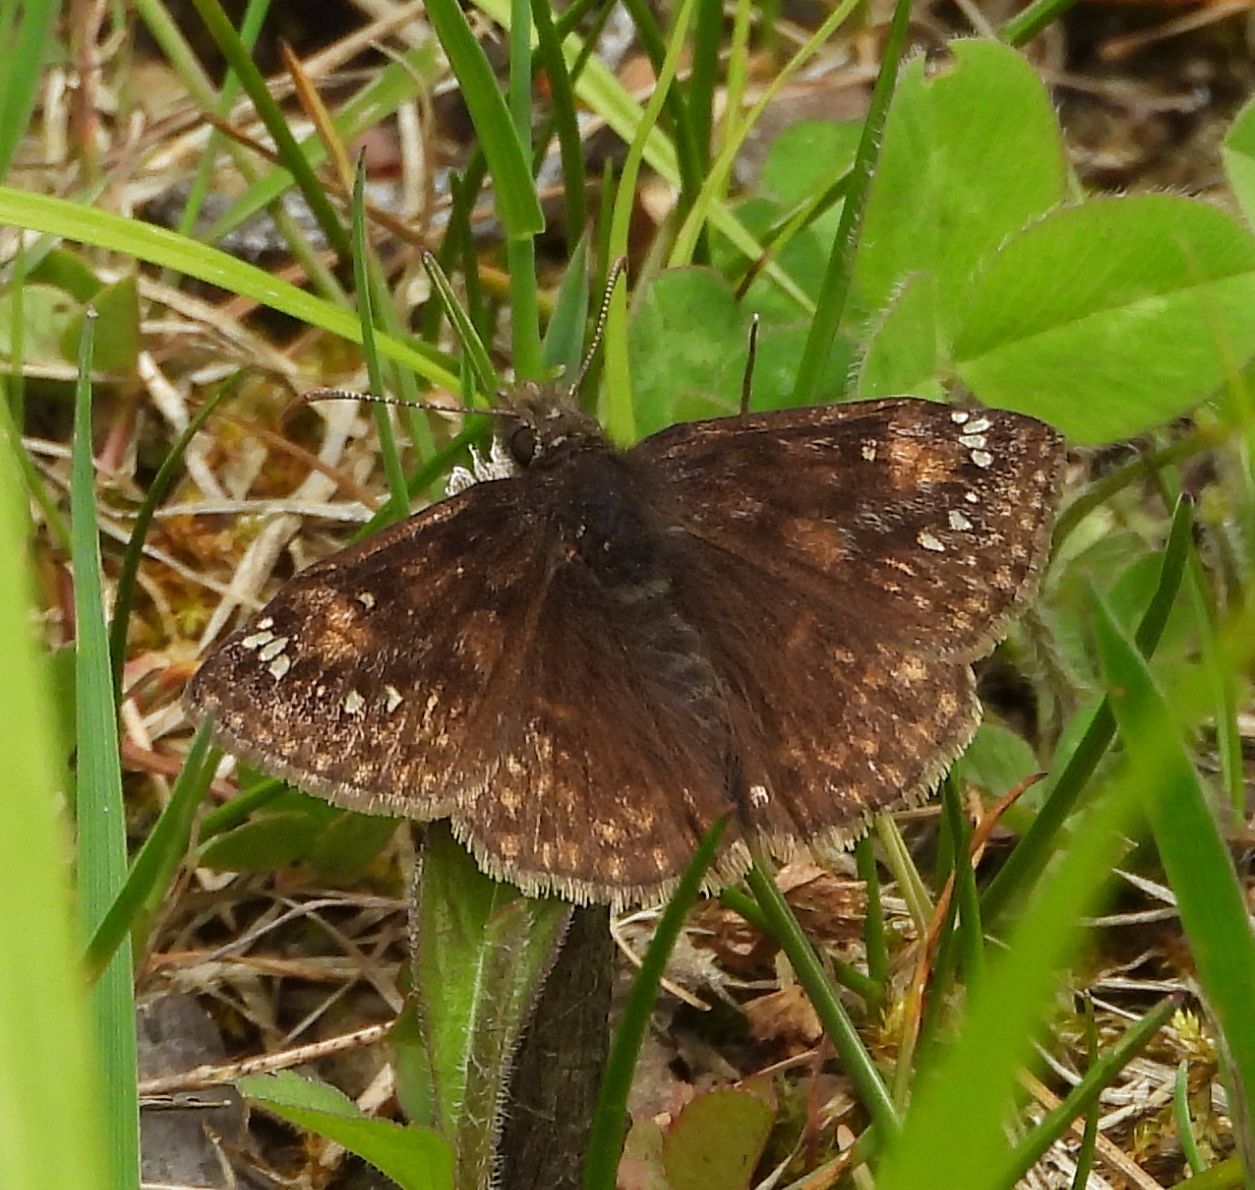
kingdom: Animalia
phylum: Arthropoda
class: Insecta
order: Lepidoptera
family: Hesperiidae
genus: Erynnis
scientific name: Erynnis juvenalis
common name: Juvenal's duskywing
